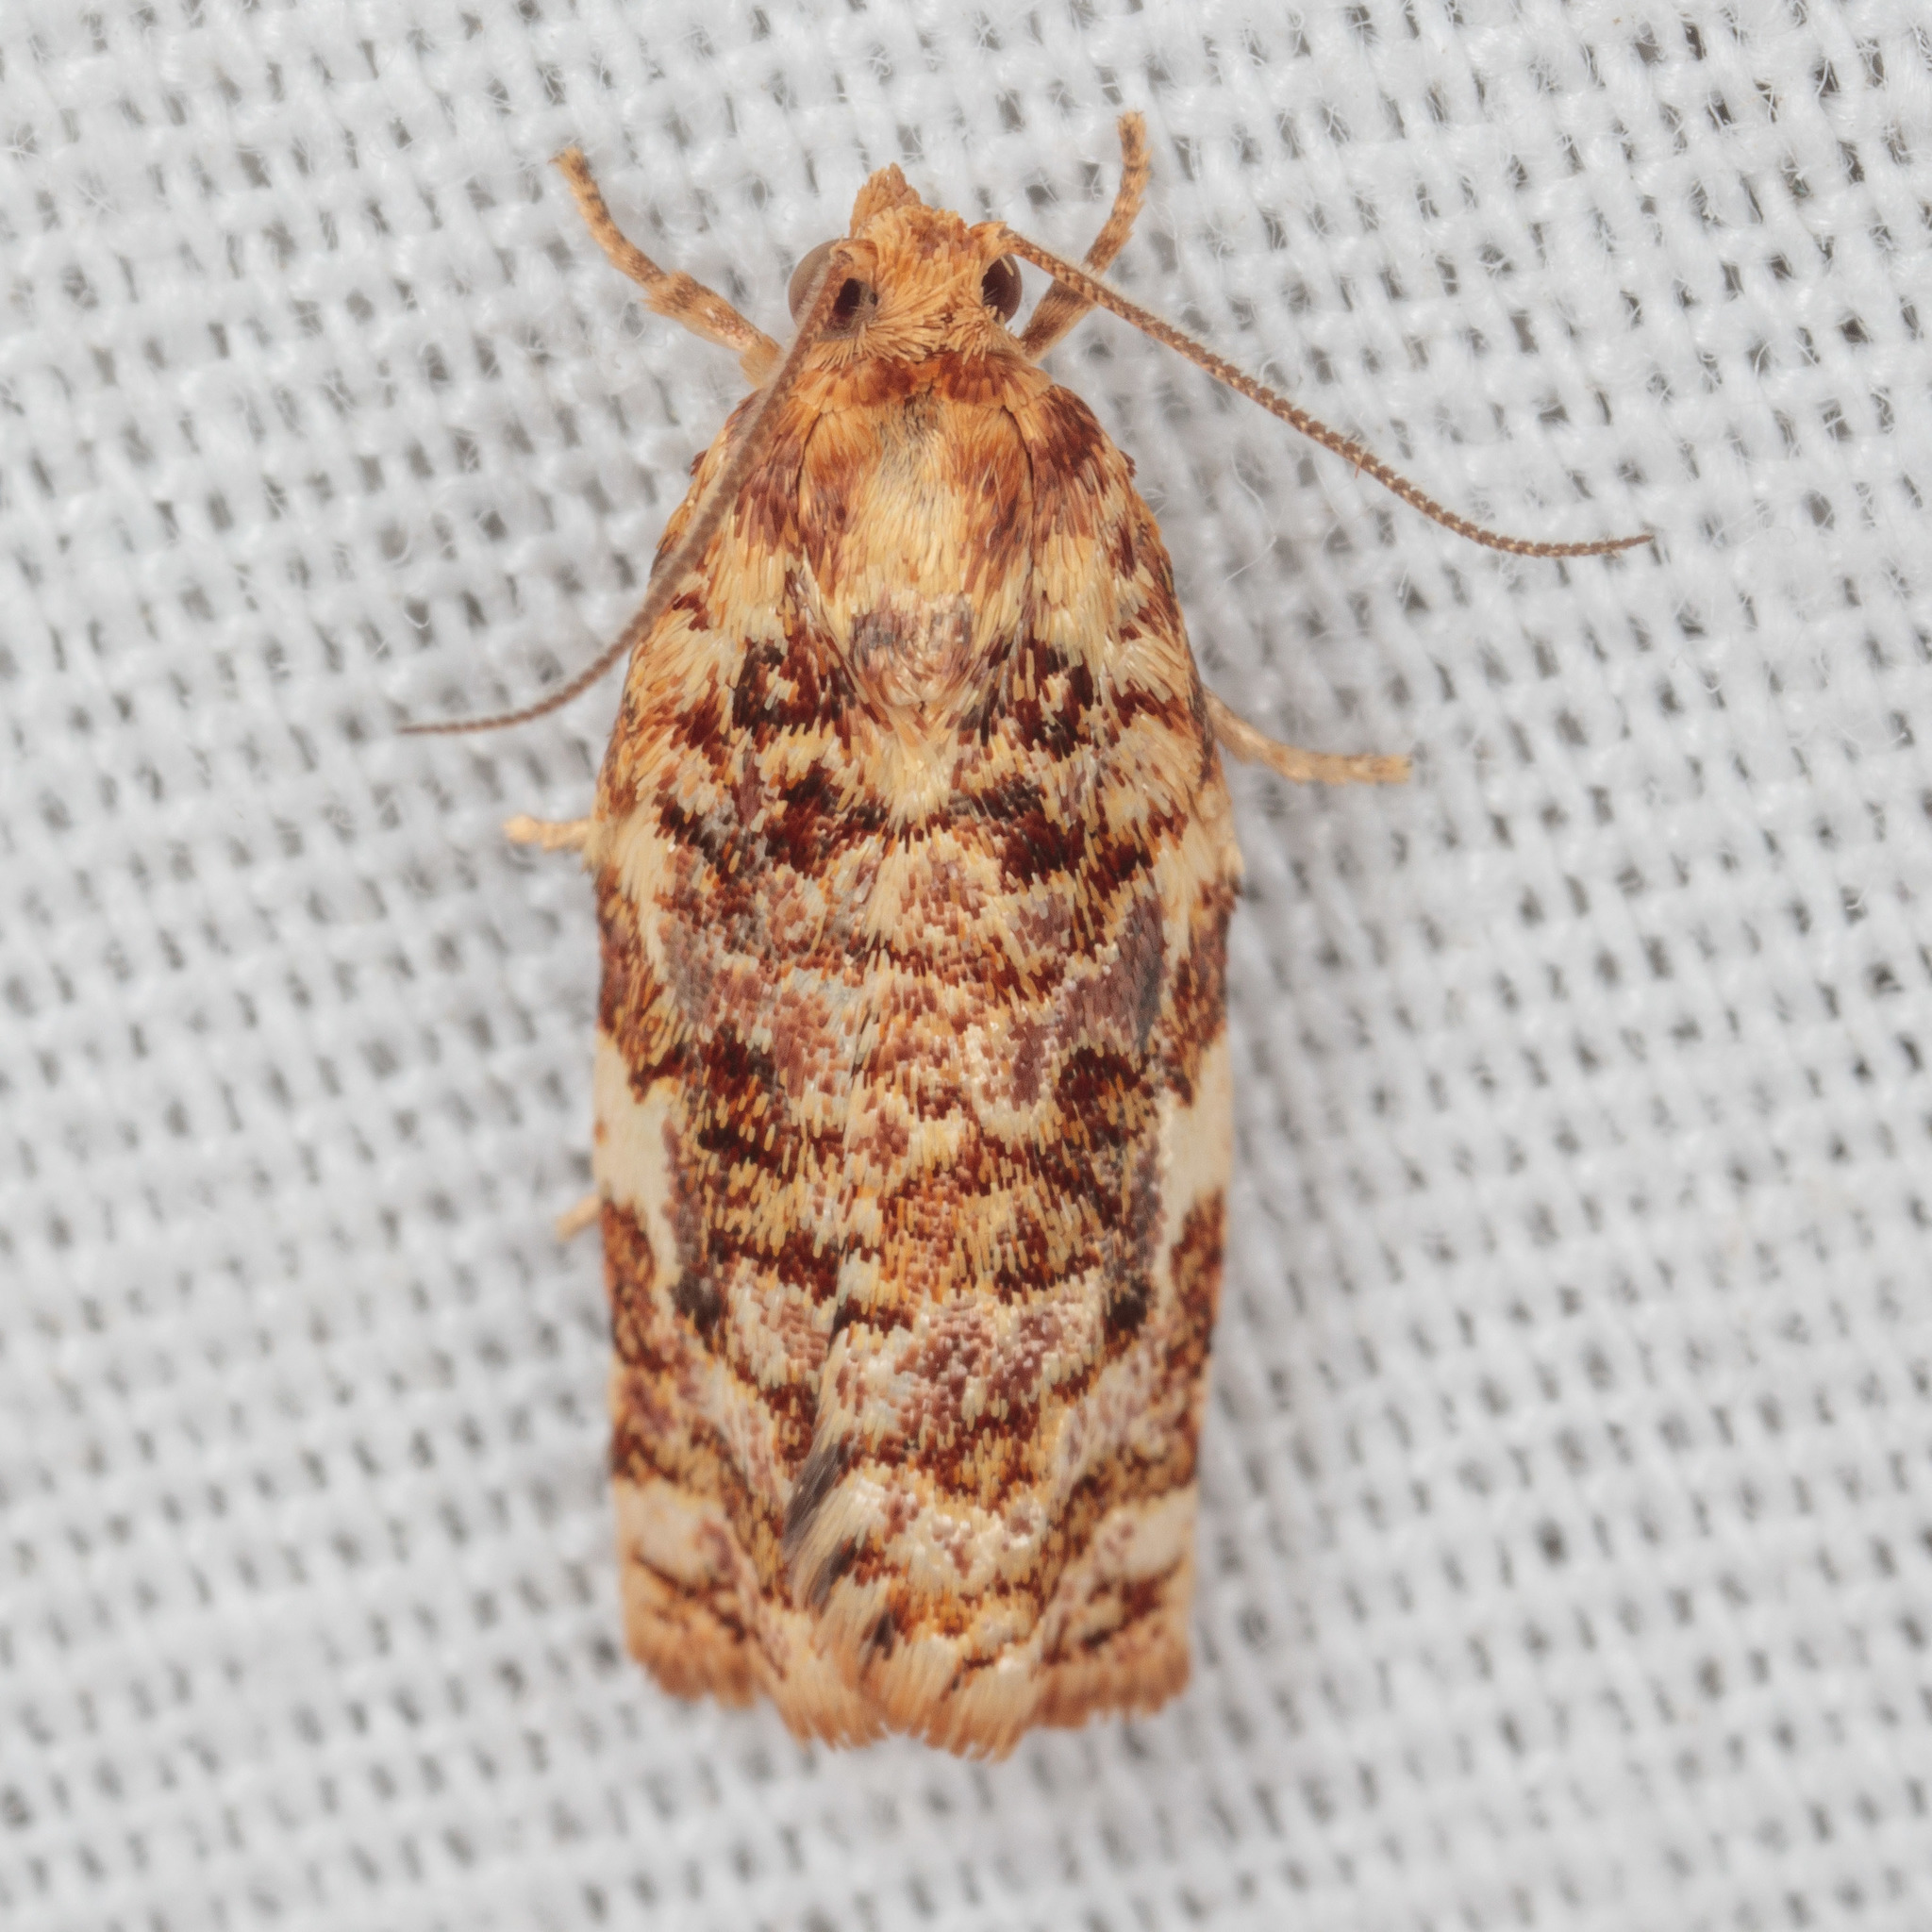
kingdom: Animalia
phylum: Arthropoda
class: Insecta
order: Lepidoptera
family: Tortricidae
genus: Archips
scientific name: Archips argyrospila
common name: Fruit-tree leafroller moth
